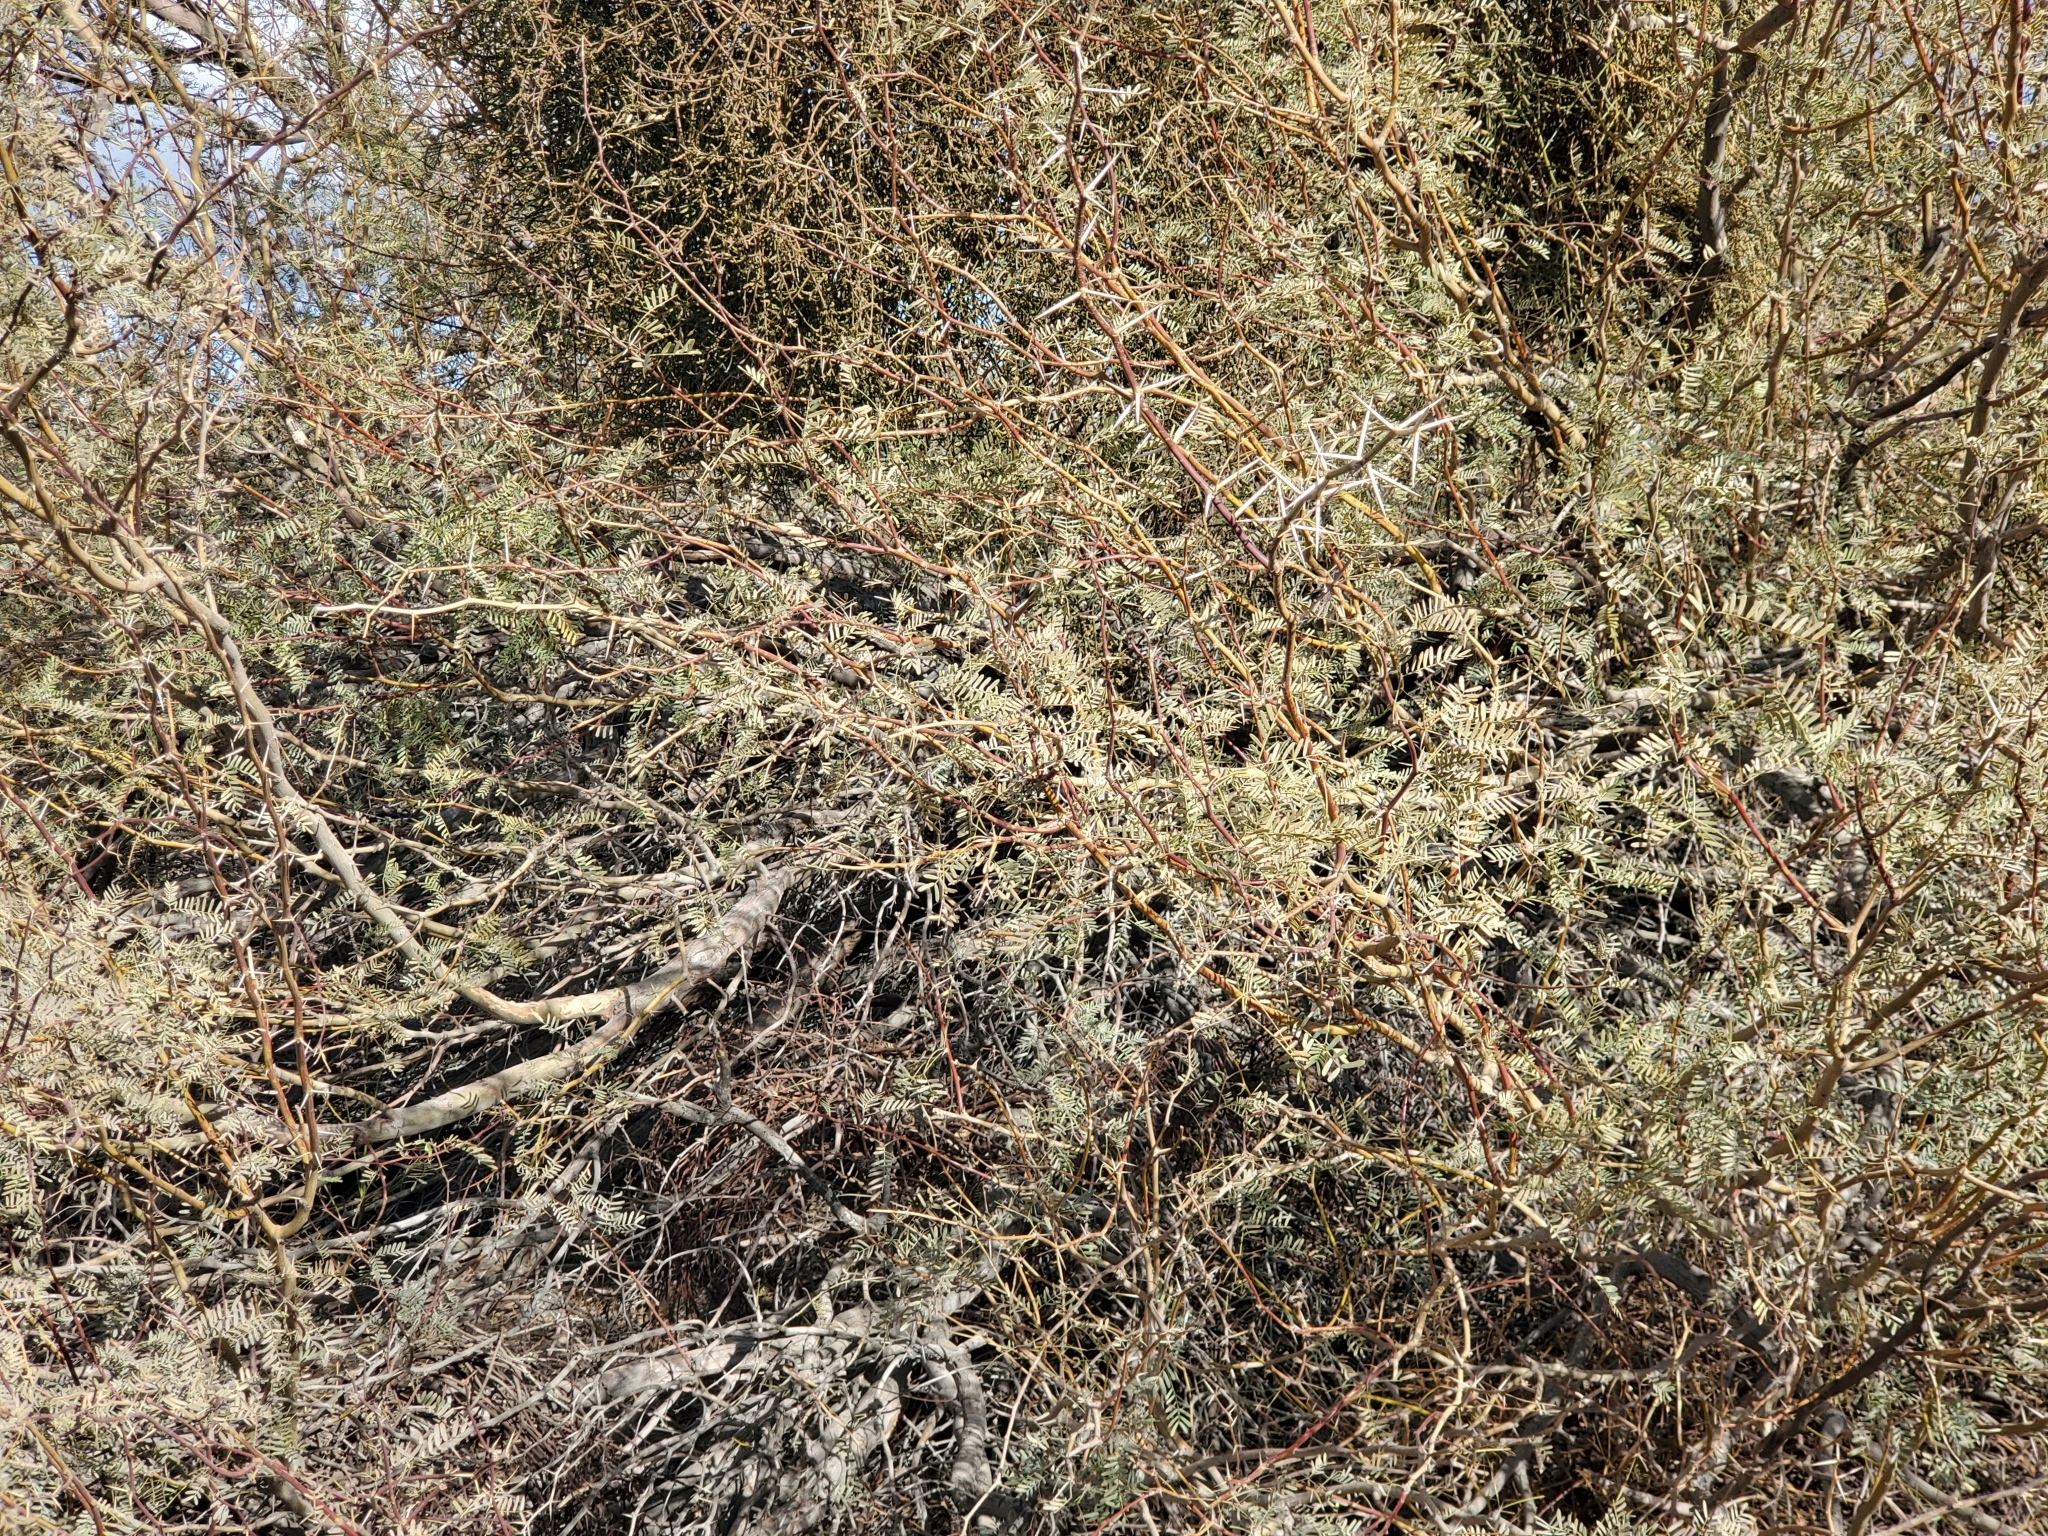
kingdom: Plantae
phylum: Tracheophyta
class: Magnoliopsida
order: Fabales
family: Fabaceae
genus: Prosopis
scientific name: Prosopis pubescens
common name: Screw-bean
